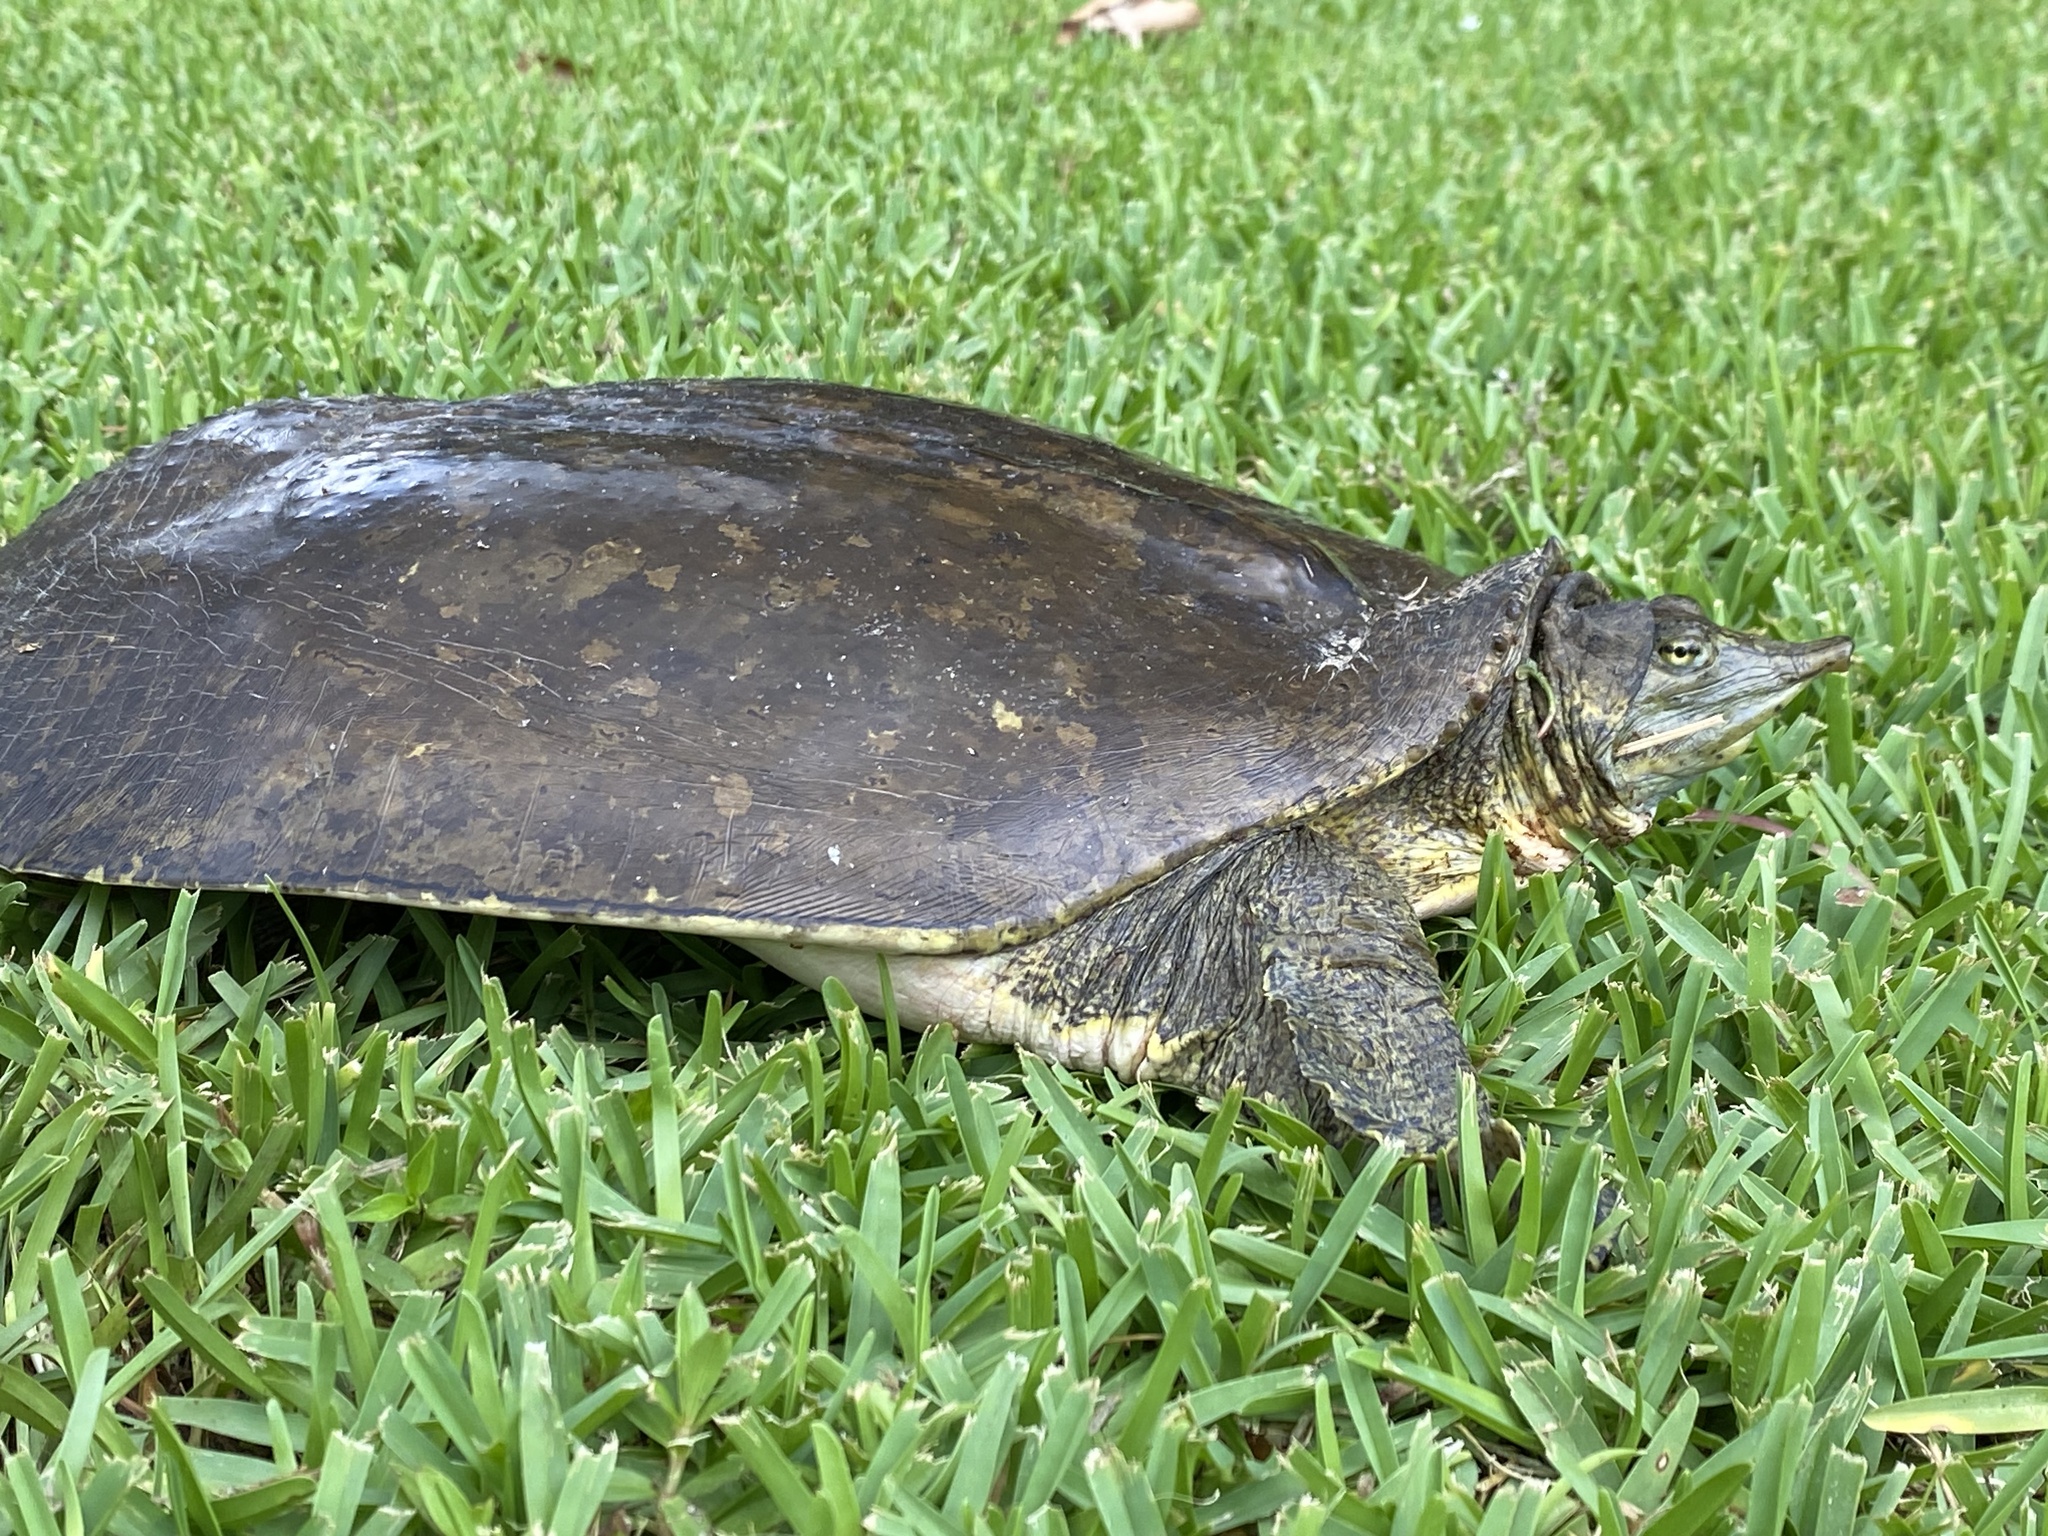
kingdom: Animalia
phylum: Chordata
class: Testudines
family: Trionychidae
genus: Apalone
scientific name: Apalone spinifera
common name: Spiny softshell turtle
